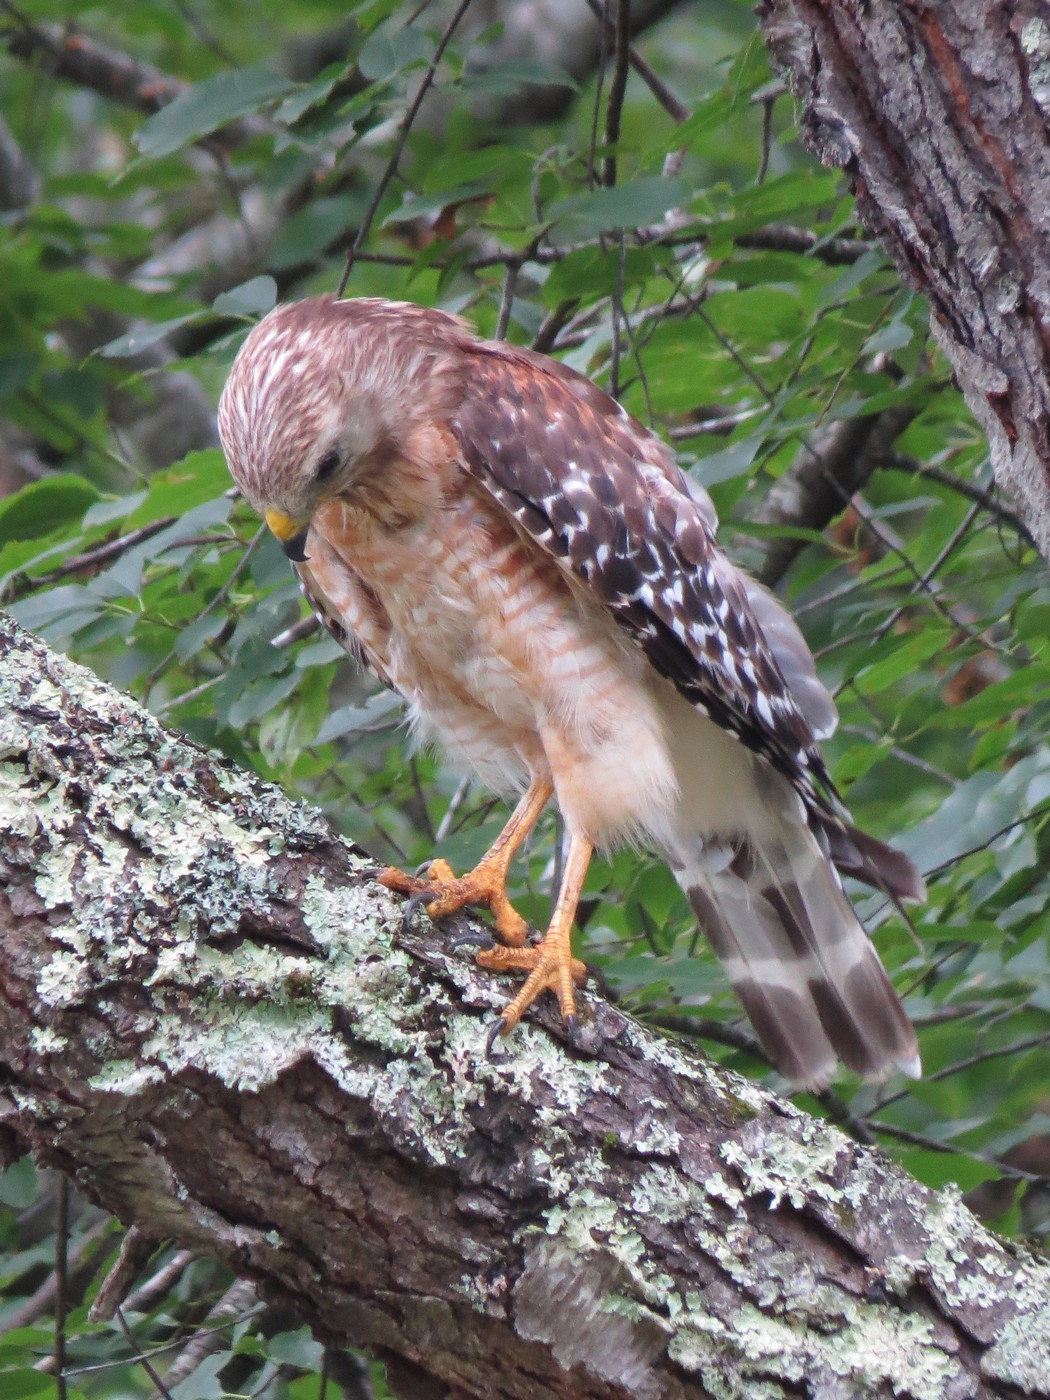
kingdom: Animalia
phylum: Chordata
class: Aves
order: Accipitriformes
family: Accipitridae
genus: Buteo
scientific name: Buteo lineatus
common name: Red-shouldered hawk
